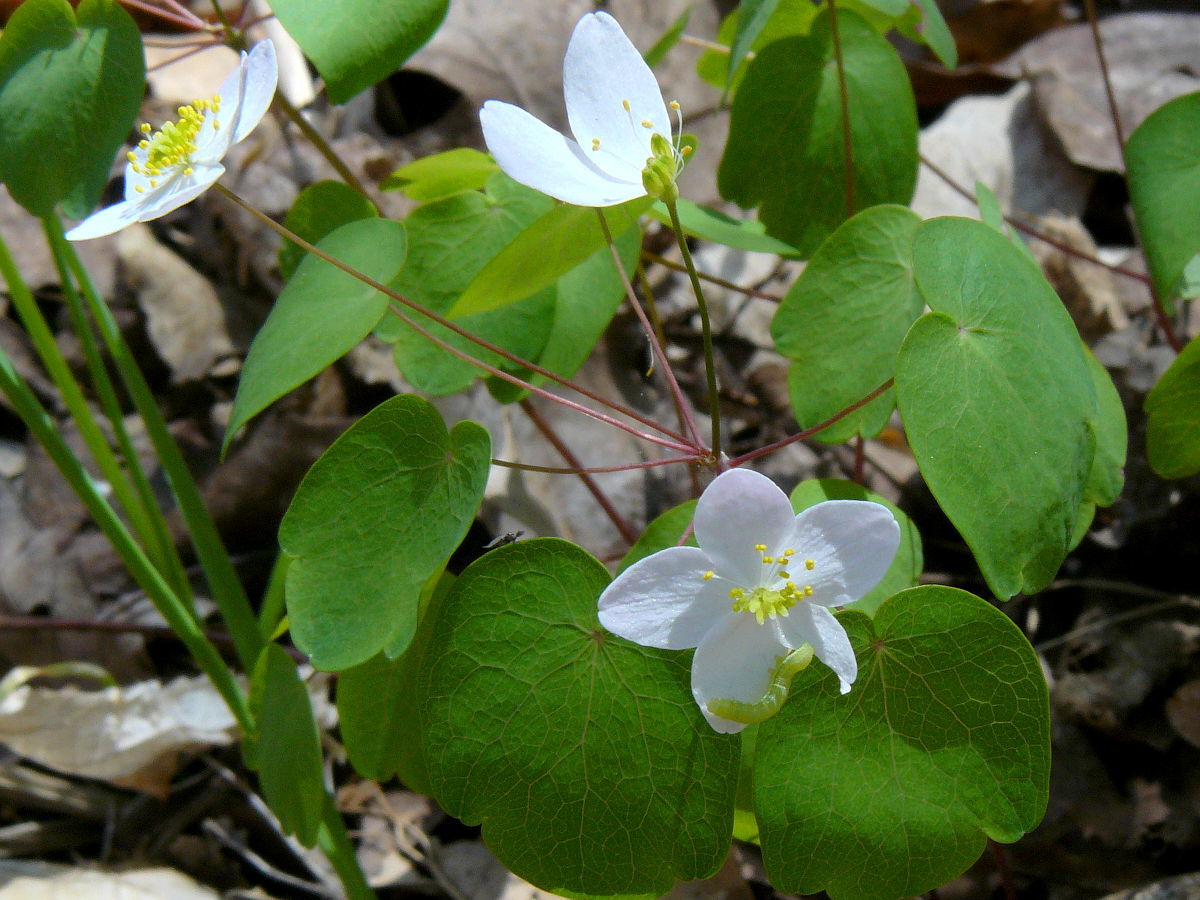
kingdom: Plantae
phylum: Tracheophyta
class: Magnoliopsida
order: Ranunculales
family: Ranunculaceae
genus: Thalictrum
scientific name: Thalictrum thalictroides
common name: Rue-anemone
